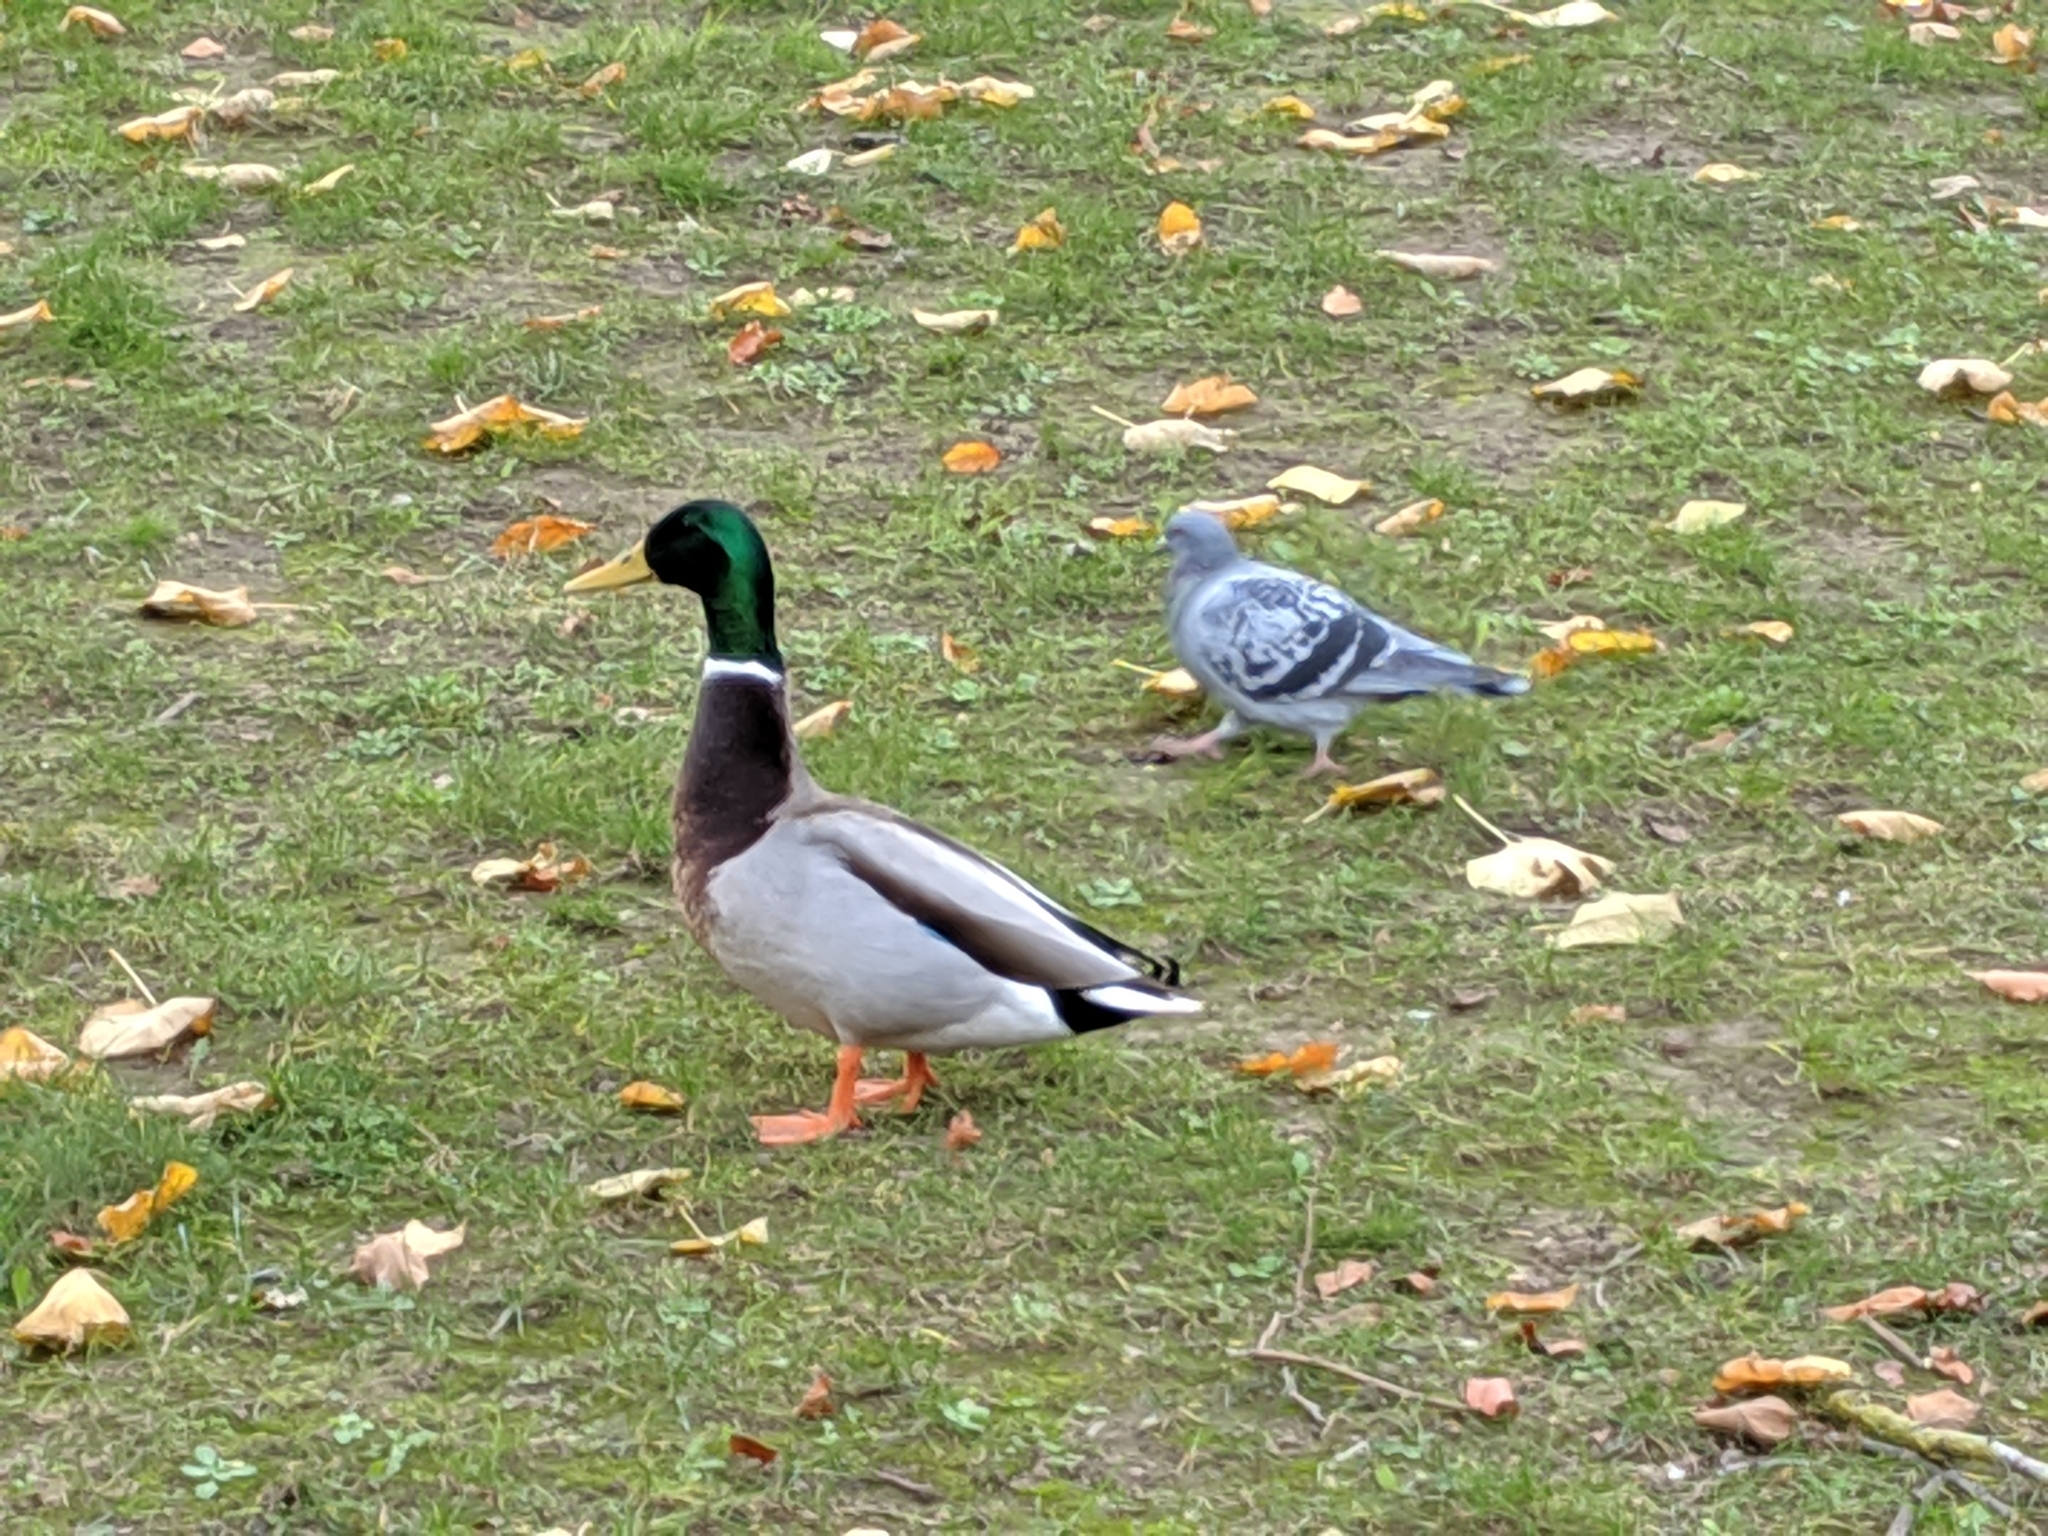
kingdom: Animalia
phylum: Chordata
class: Aves
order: Anseriformes
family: Anatidae
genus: Anas
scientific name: Anas platyrhynchos
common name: Mallard
